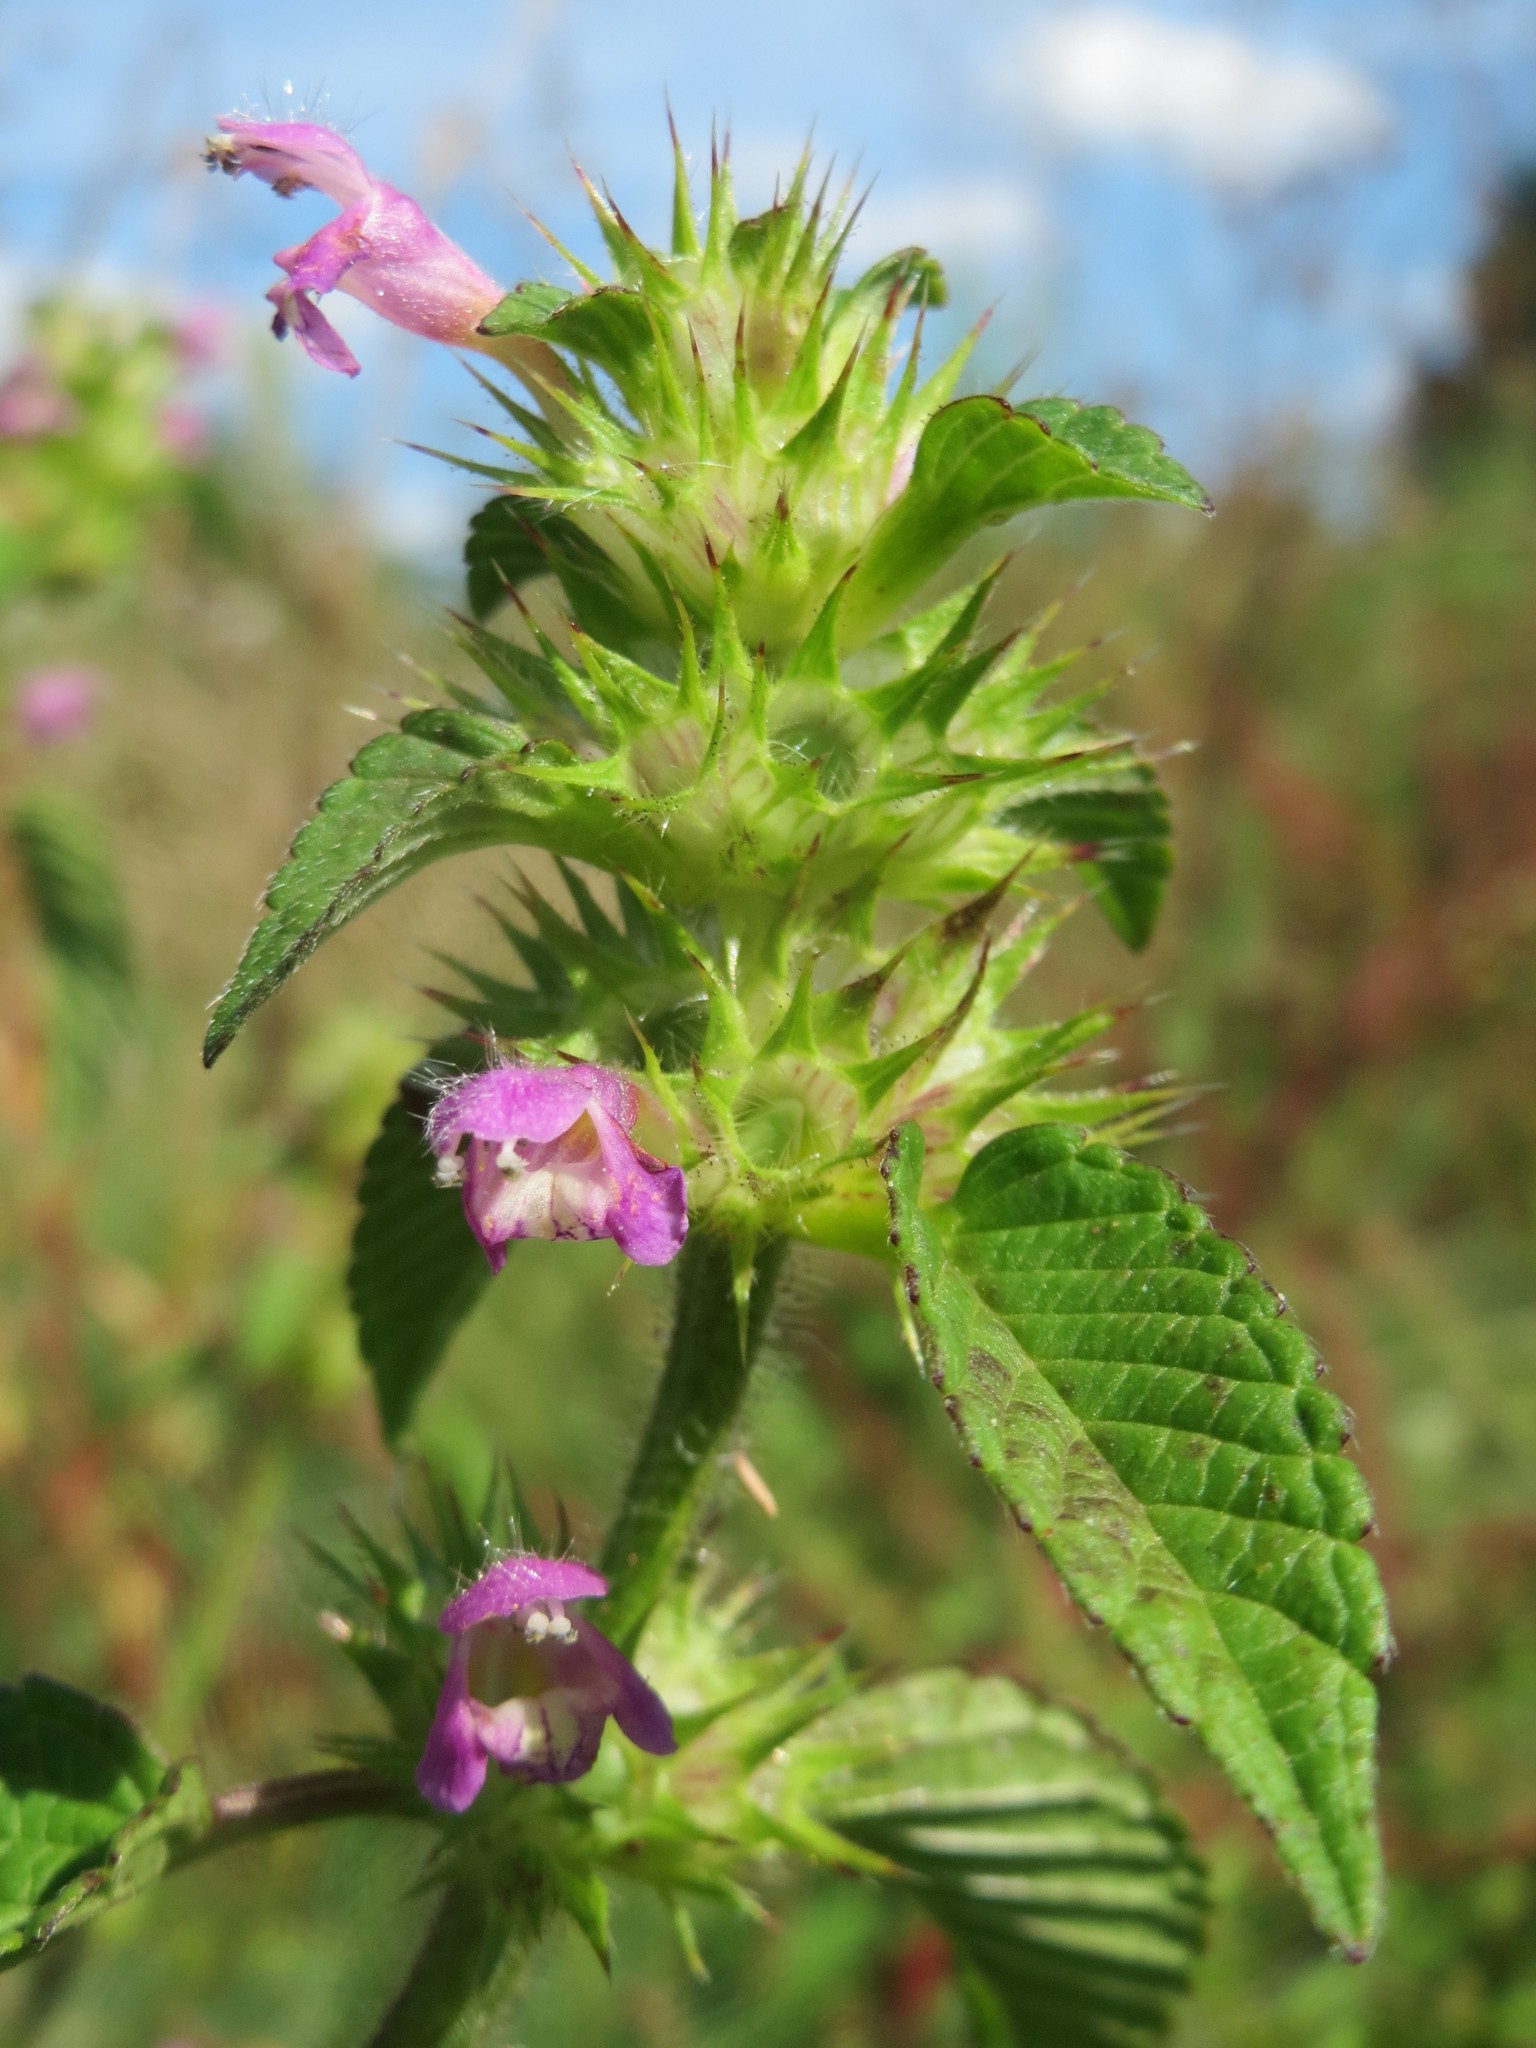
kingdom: Plantae
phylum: Tracheophyta
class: Magnoliopsida
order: Lamiales
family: Lamiaceae
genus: Galeopsis
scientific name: Galeopsis tetrahit
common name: Common hemp-nettle
